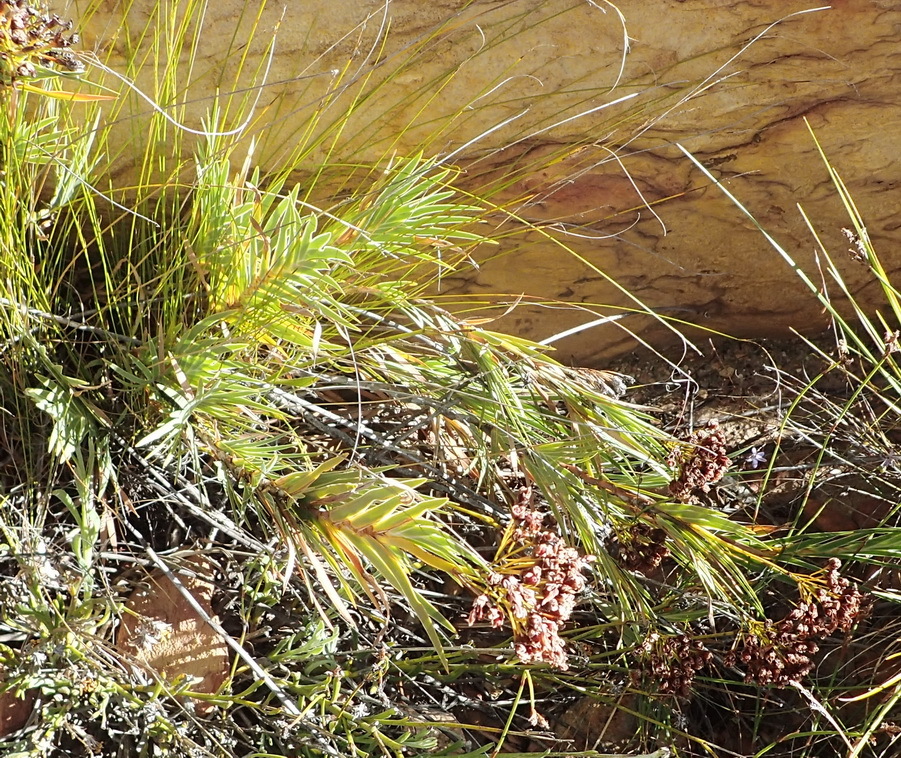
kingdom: Plantae
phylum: Tracheophyta
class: Liliopsida
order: Asparagales
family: Iridaceae
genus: Nivenia
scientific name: Nivenia binata
